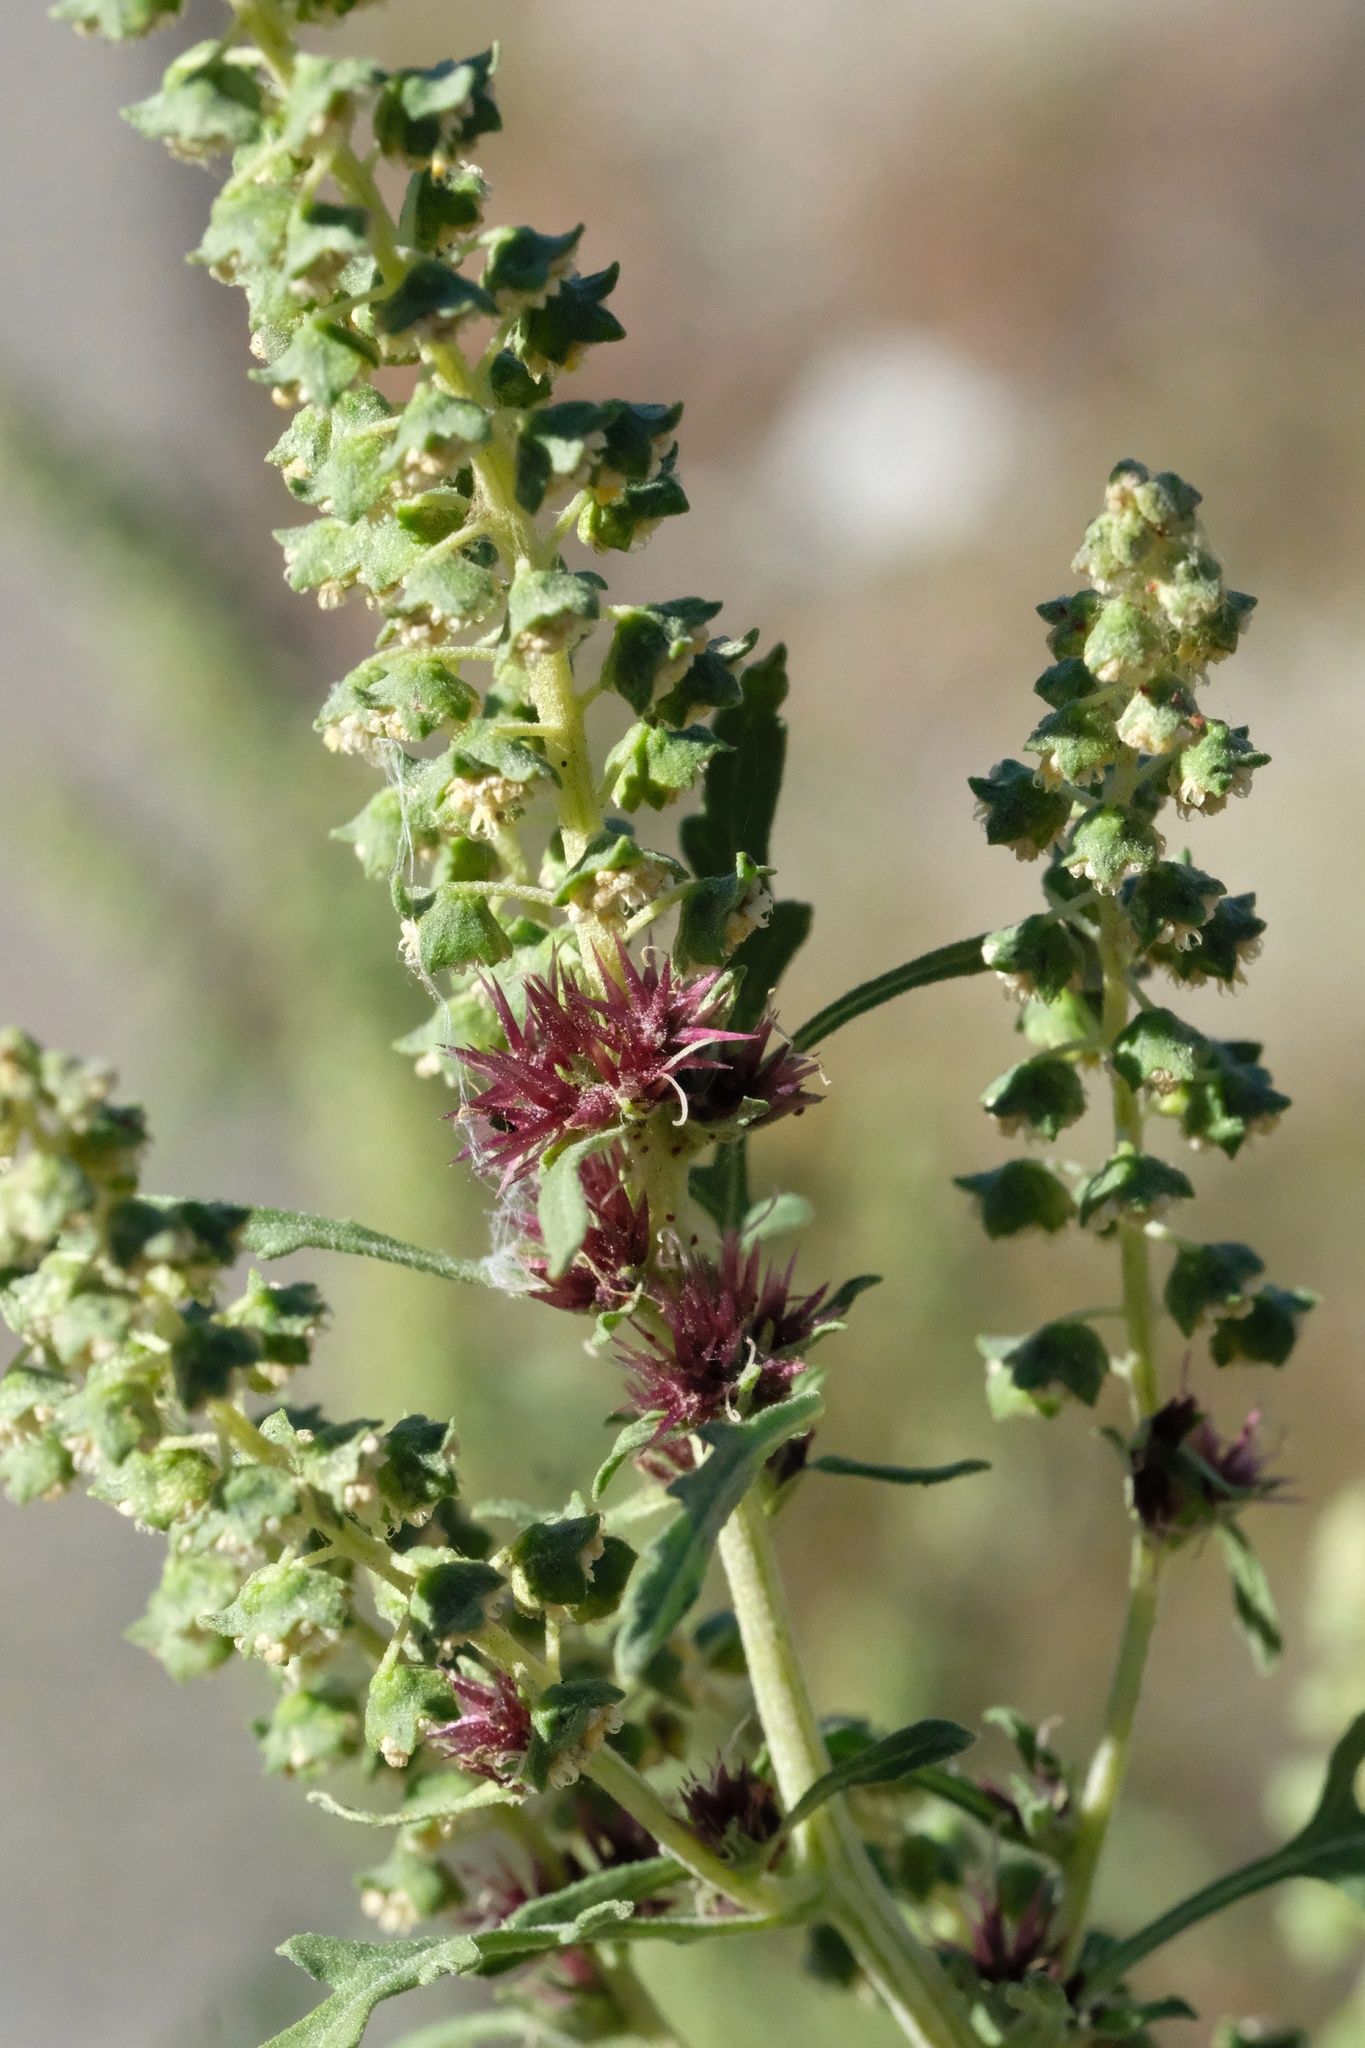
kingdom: Plantae
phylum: Tracheophyta
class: Magnoliopsida
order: Asterales
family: Asteraceae
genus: Ambrosia
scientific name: Ambrosia acanthicarpa
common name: Hooker's bur ragweed
